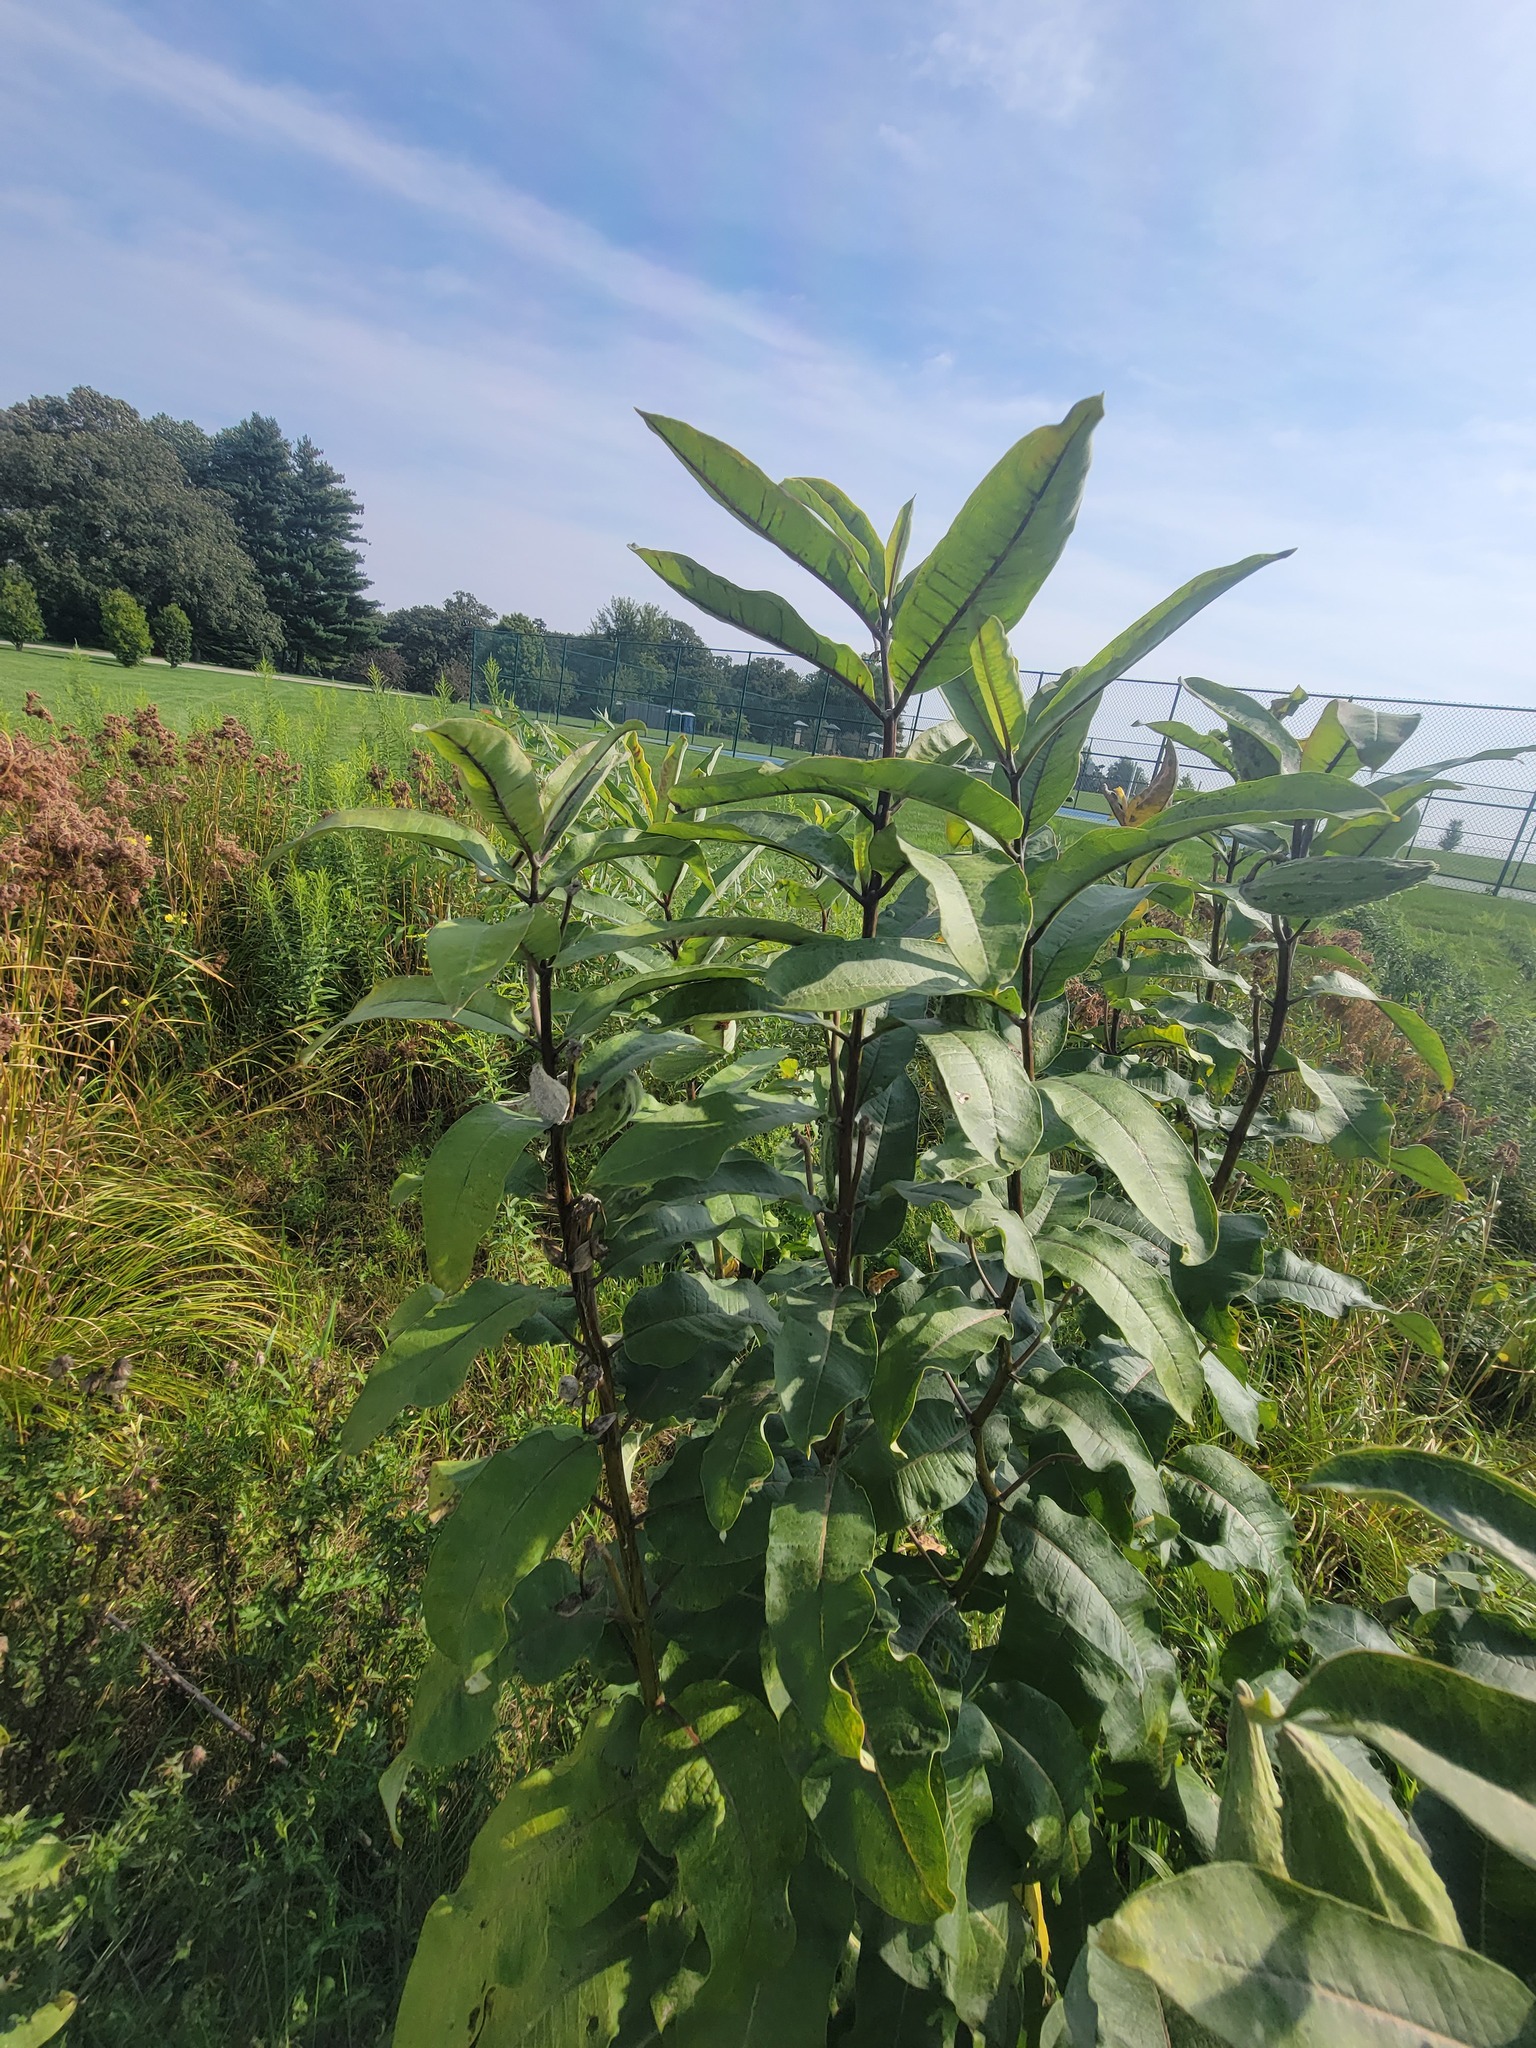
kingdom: Plantae
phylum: Tracheophyta
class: Magnoliopsida
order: Gentianales
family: Apocynaceae
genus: Asclepias
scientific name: Asclepias syriaca
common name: Common milkweed
